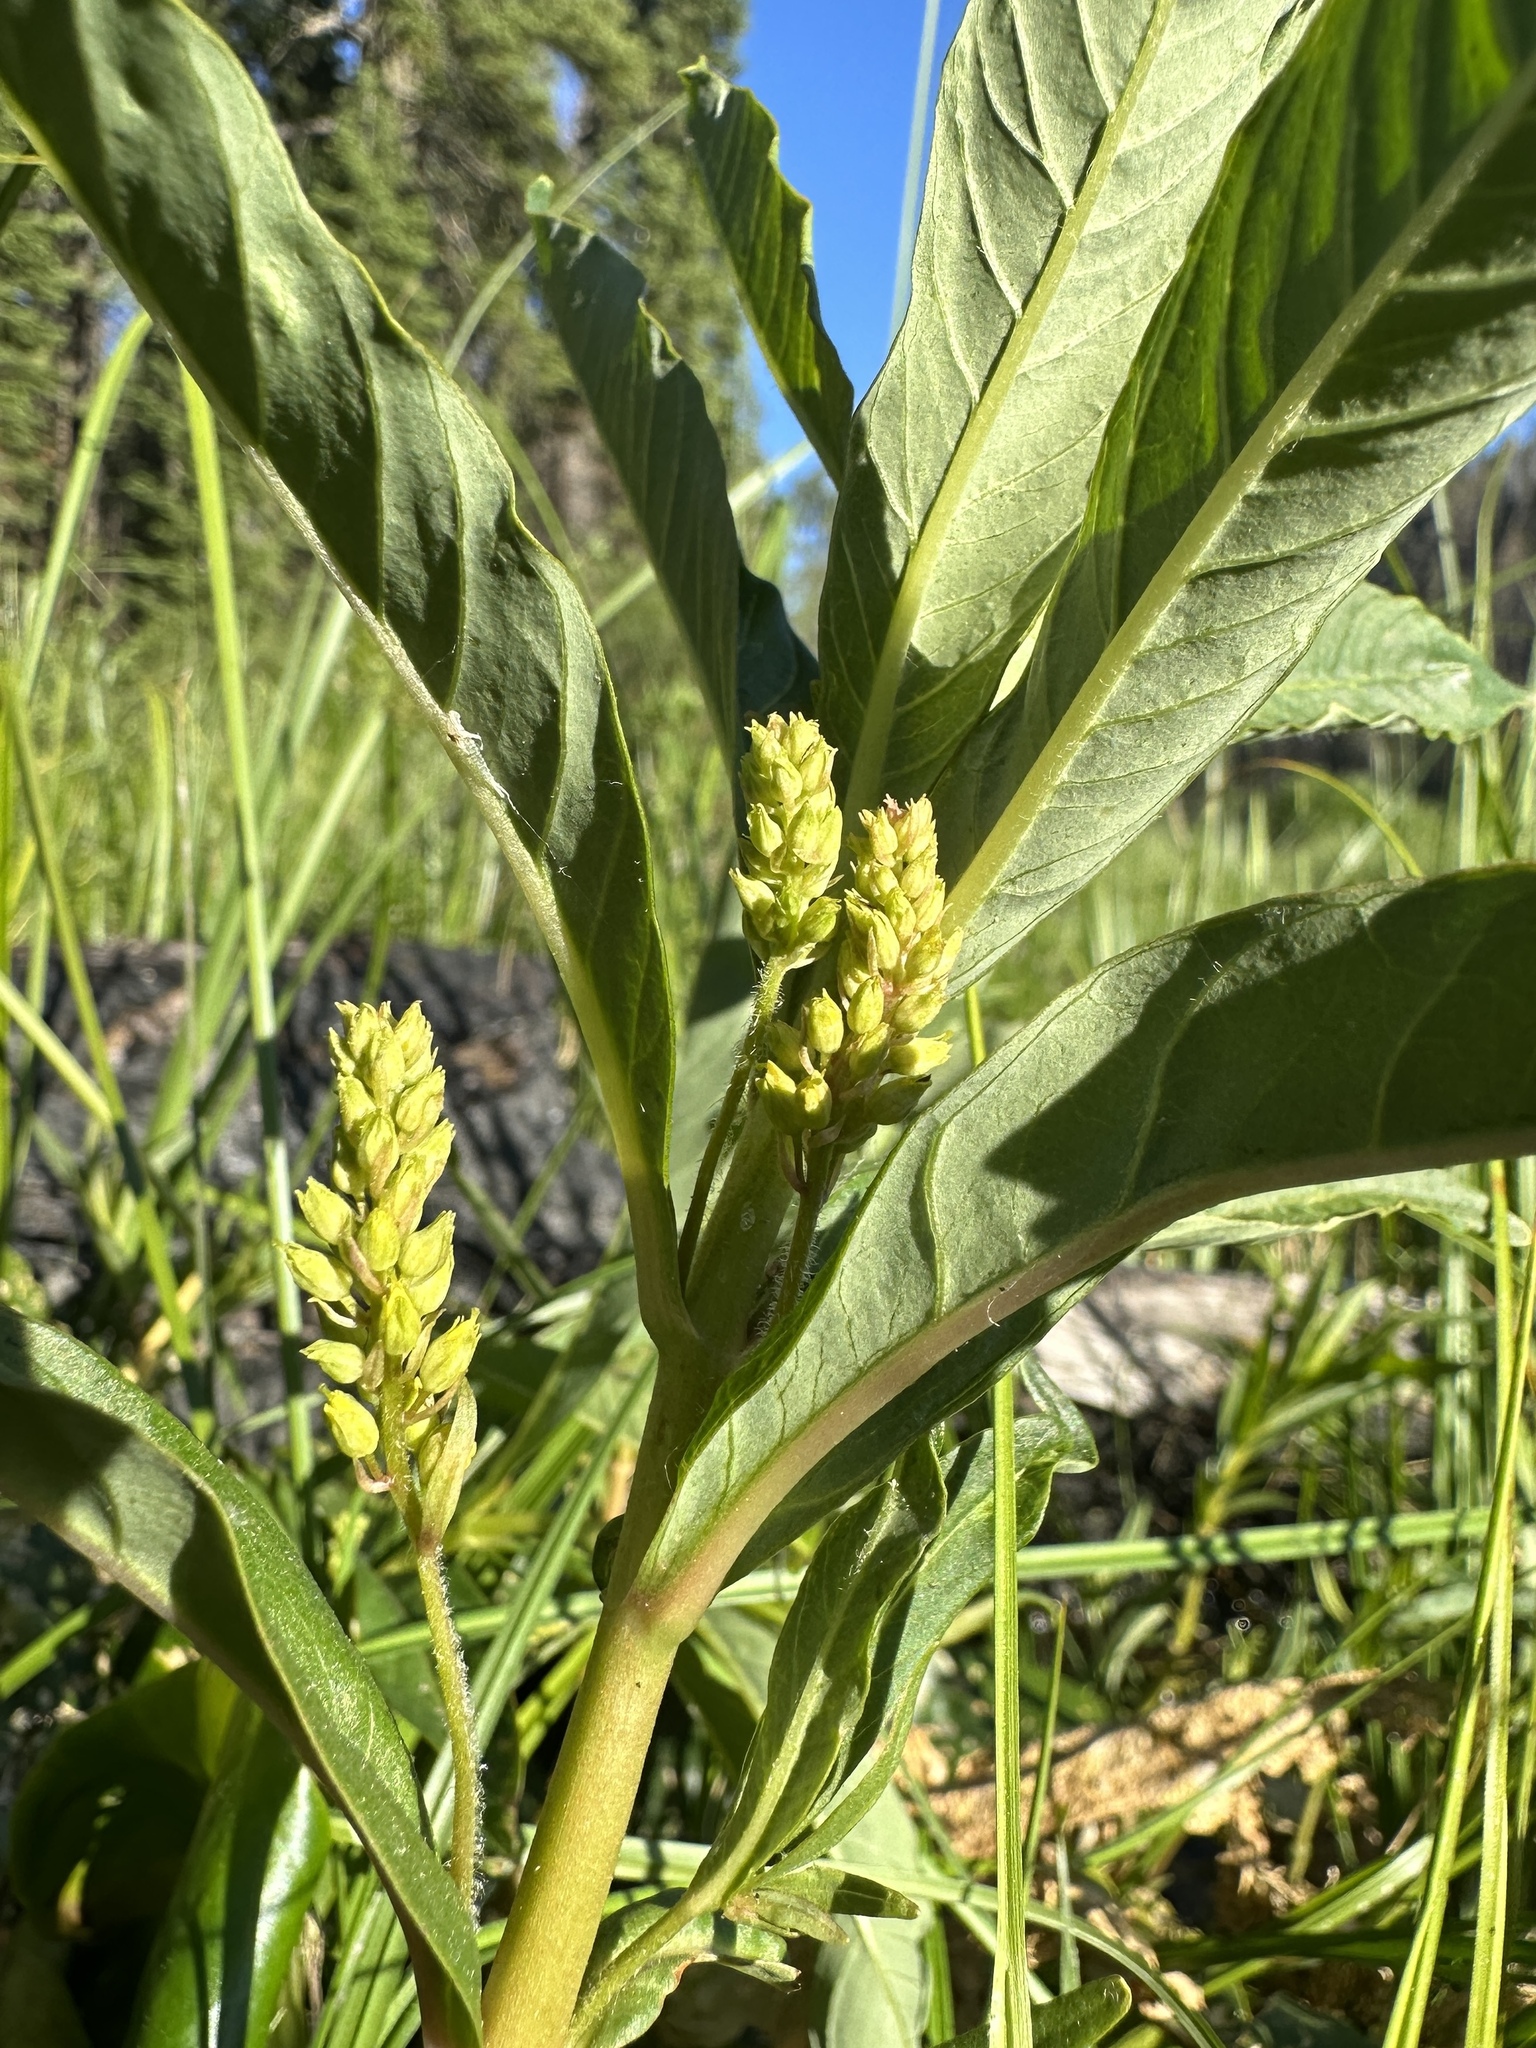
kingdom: Plantae
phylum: Tracheophyta
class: Magnoliopsida
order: Ericales
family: Primulaceae
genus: Lysimachia
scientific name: Lysimachia thyrsiflora
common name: Tufted loosestrife
